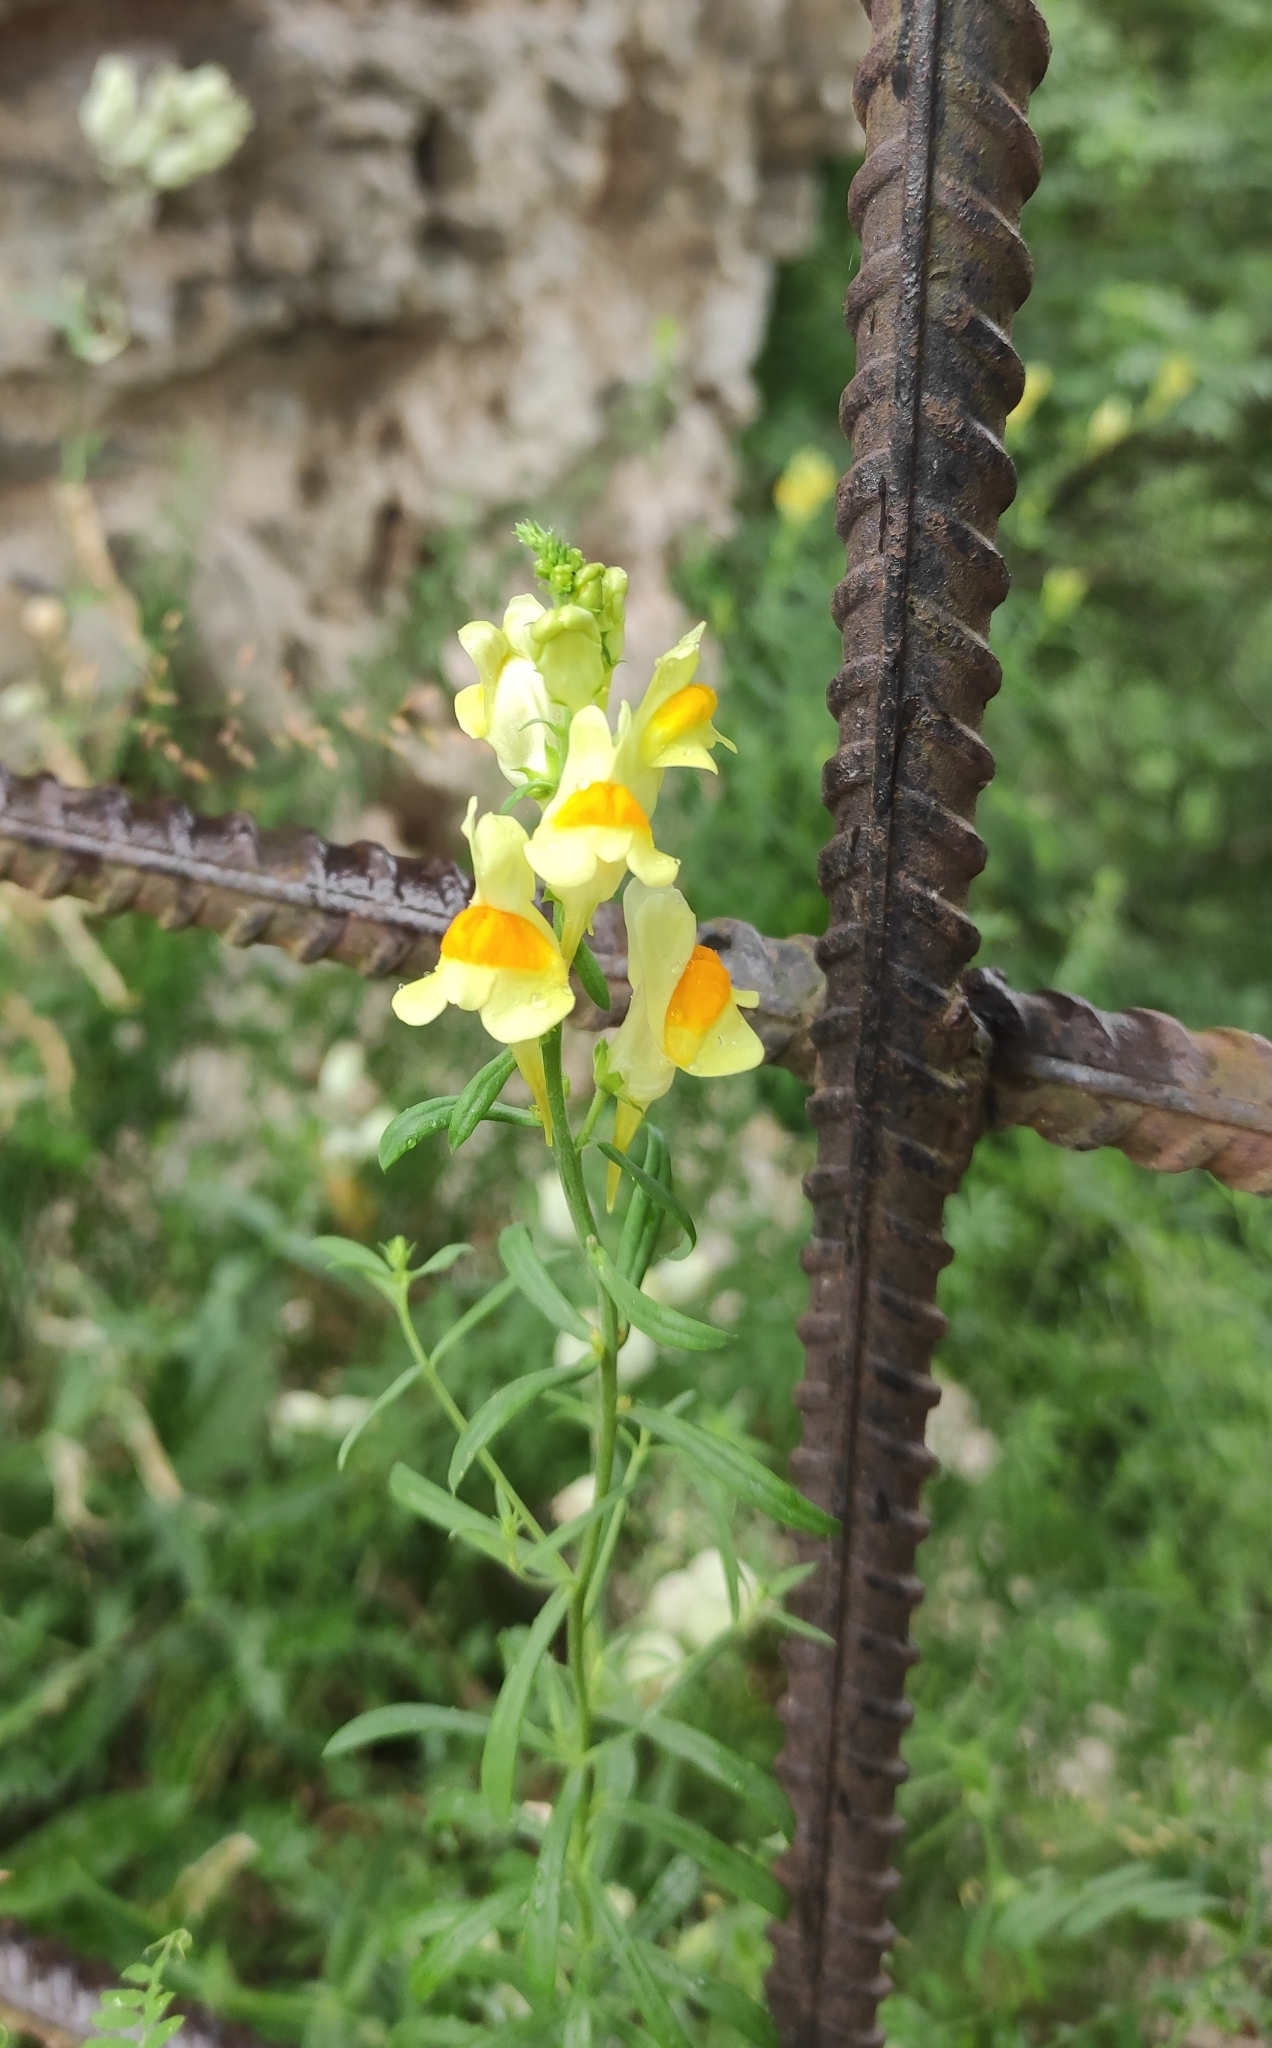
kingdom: Plantae
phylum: Tracheophyta
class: Magnoliopsida
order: Lamiales
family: Plantaginaceae
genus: Linaria
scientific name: Linaria vulgaris
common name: Butter and eggs
